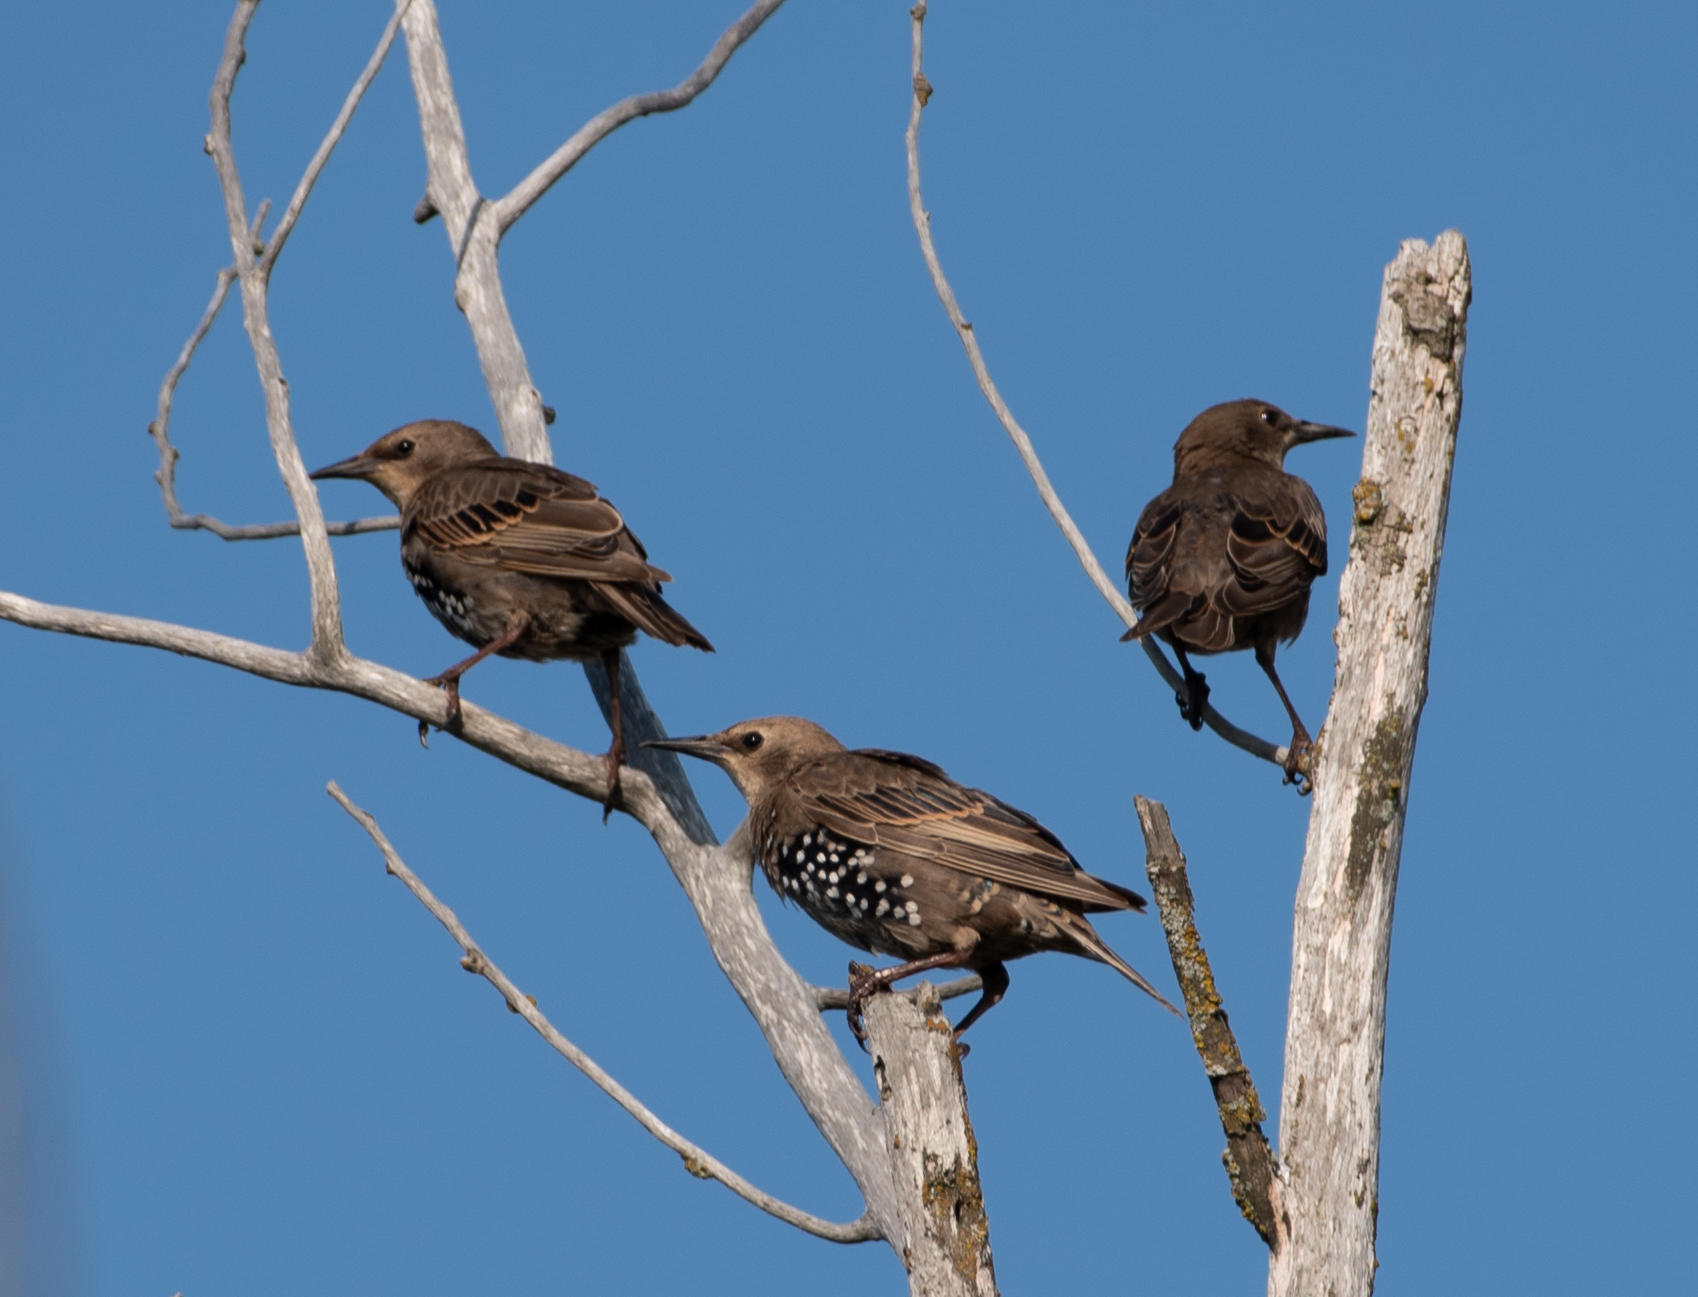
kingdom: Animalia
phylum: Chordata
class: Aves
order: Passeriformes
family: Sturnidae
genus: Sturnus
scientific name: Sturnus vulgaris
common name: Common starling
